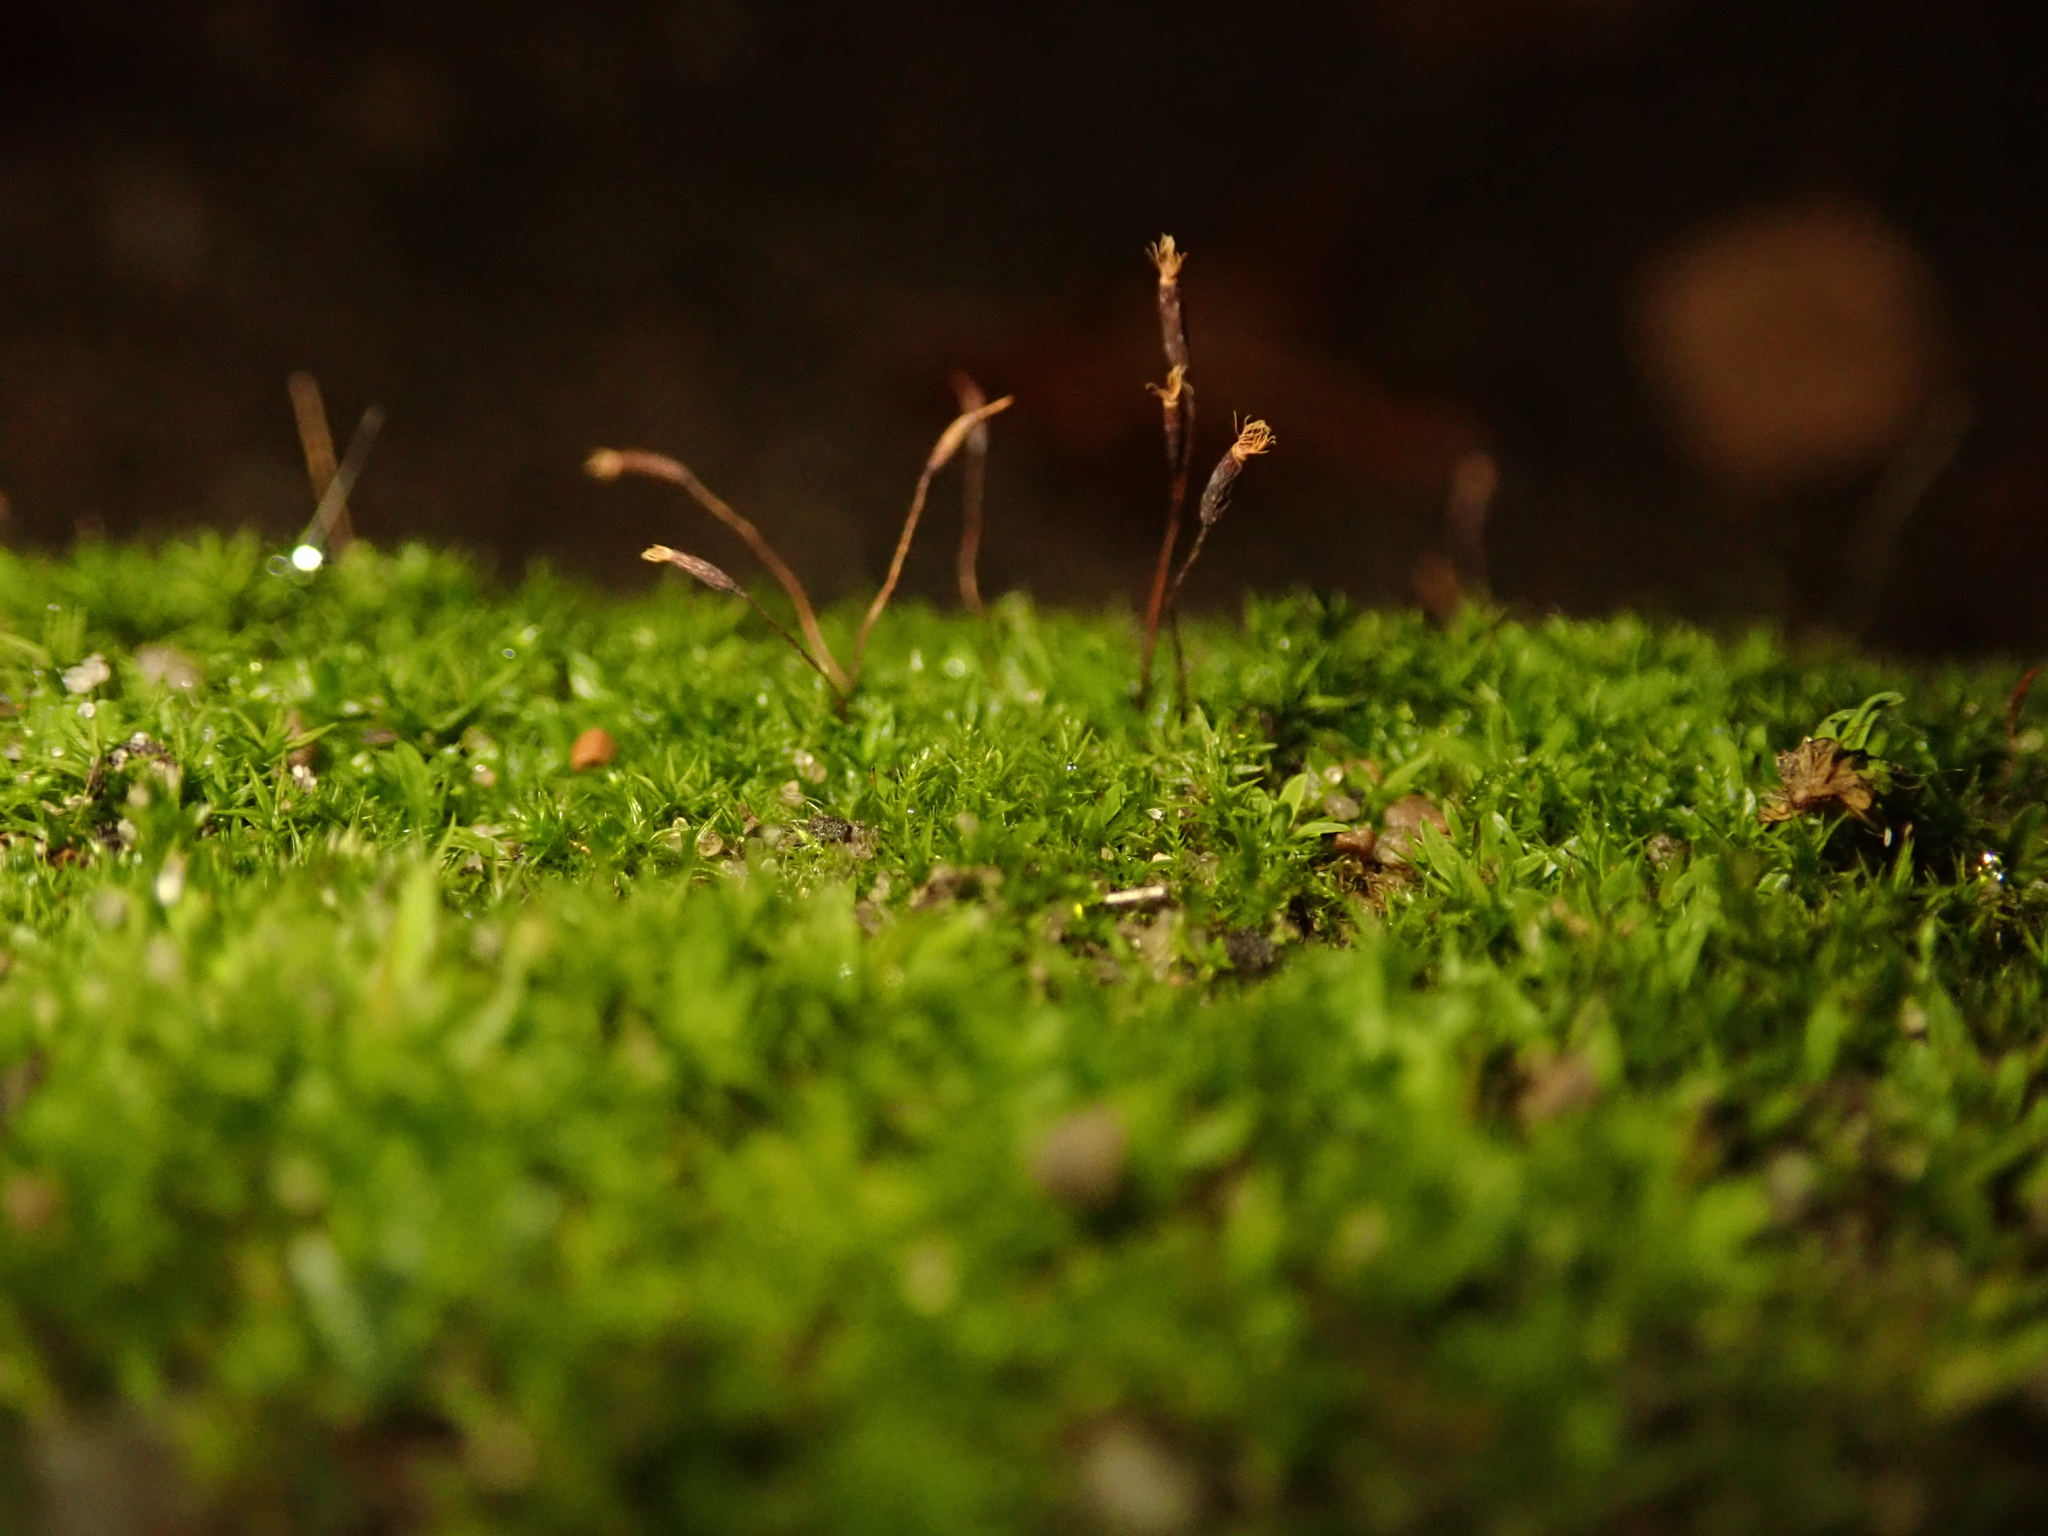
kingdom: Plantae
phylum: Bryophyta
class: Bryopsida
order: Pottiales
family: Pottiaceae
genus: Tortula
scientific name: Tortula muralis
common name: Wall screw-moss
